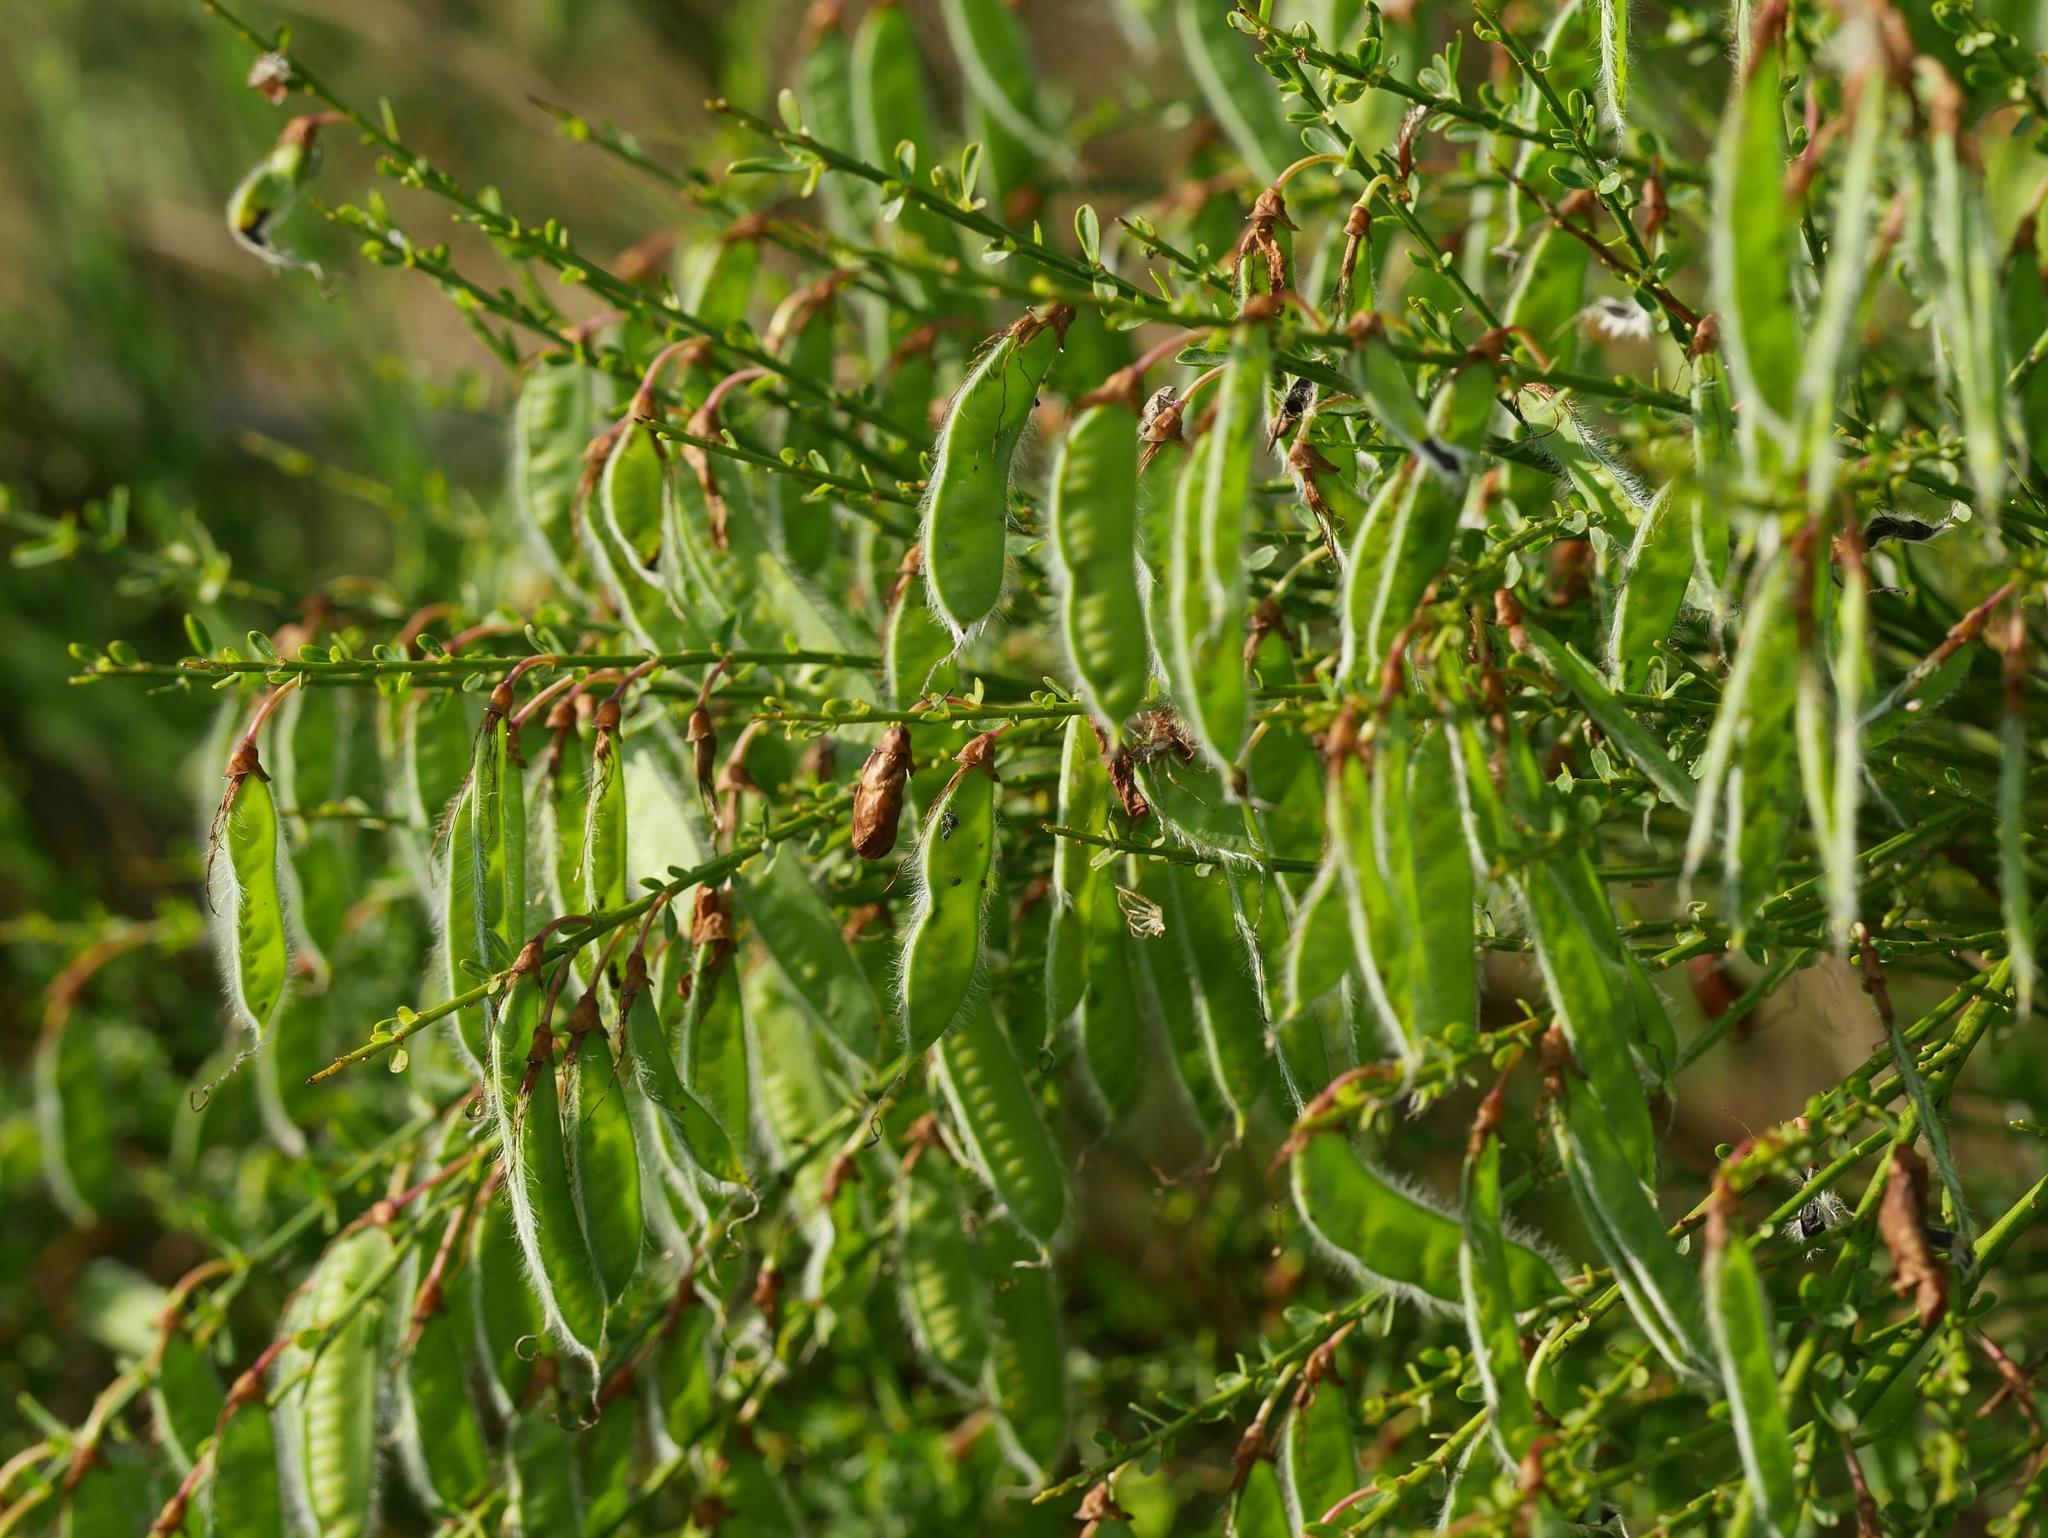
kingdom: Plantae
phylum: Tracheophyta
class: Magnoliopsida
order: Fabales
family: Fabaceae
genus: Cytisus
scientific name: Cytisus scoparius
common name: Scotch broom
